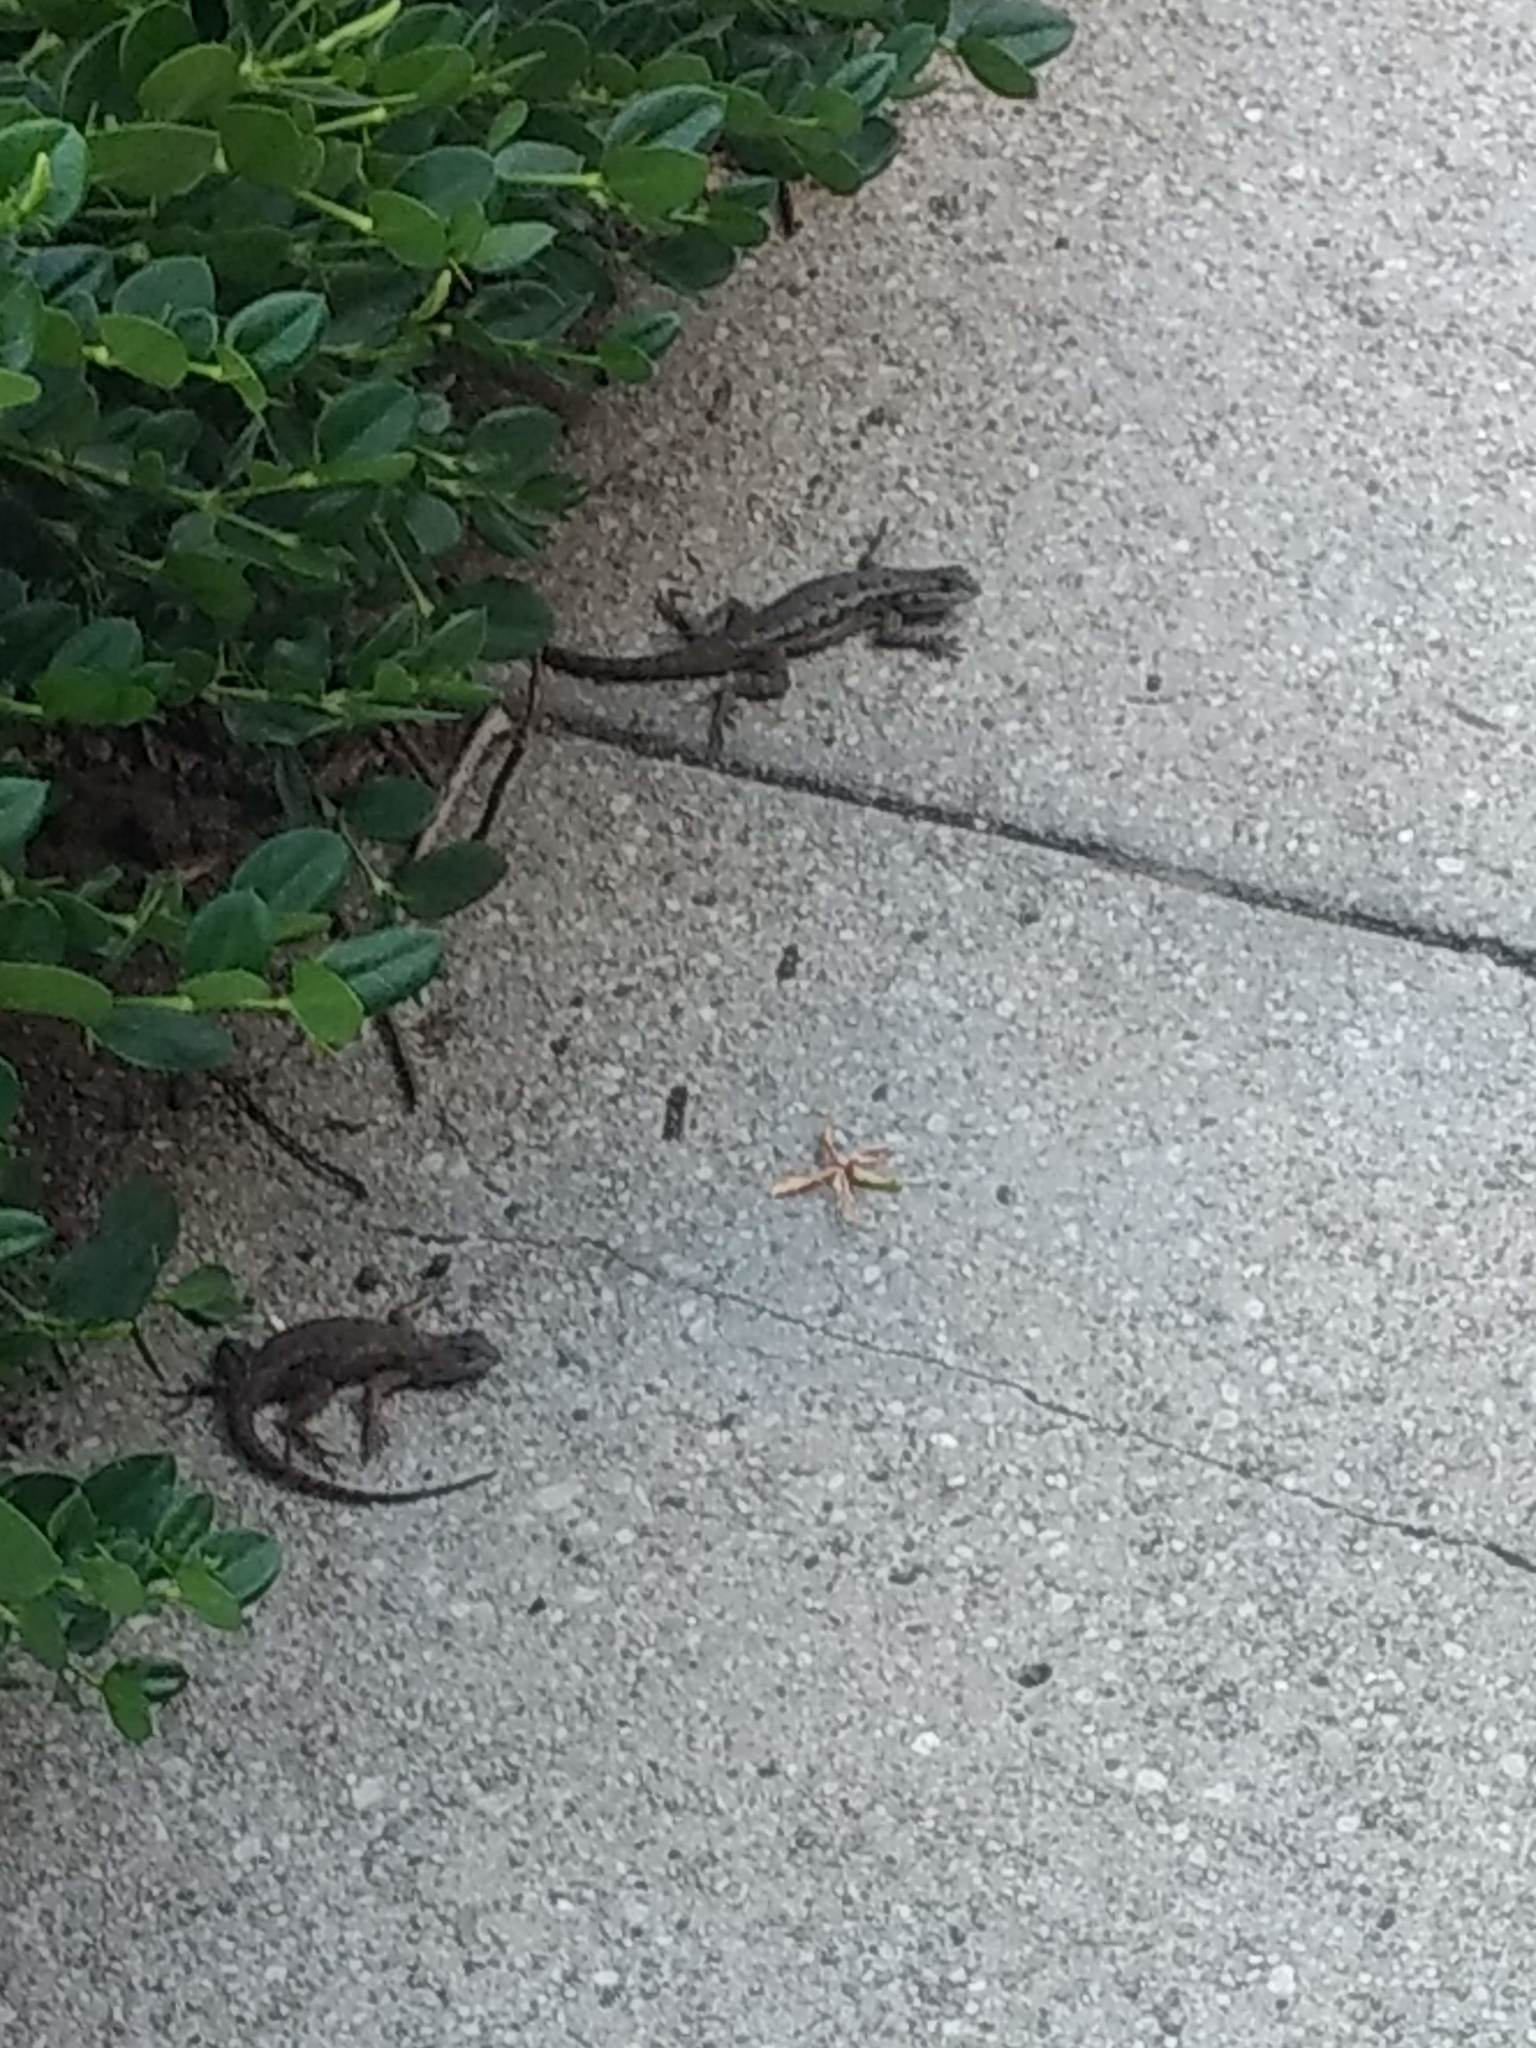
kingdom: Animalia
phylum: Chordata
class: Squamata
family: Phrynosomatidae
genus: Sceloporus
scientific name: Sceloporus occidentalis
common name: Western fence lizard
